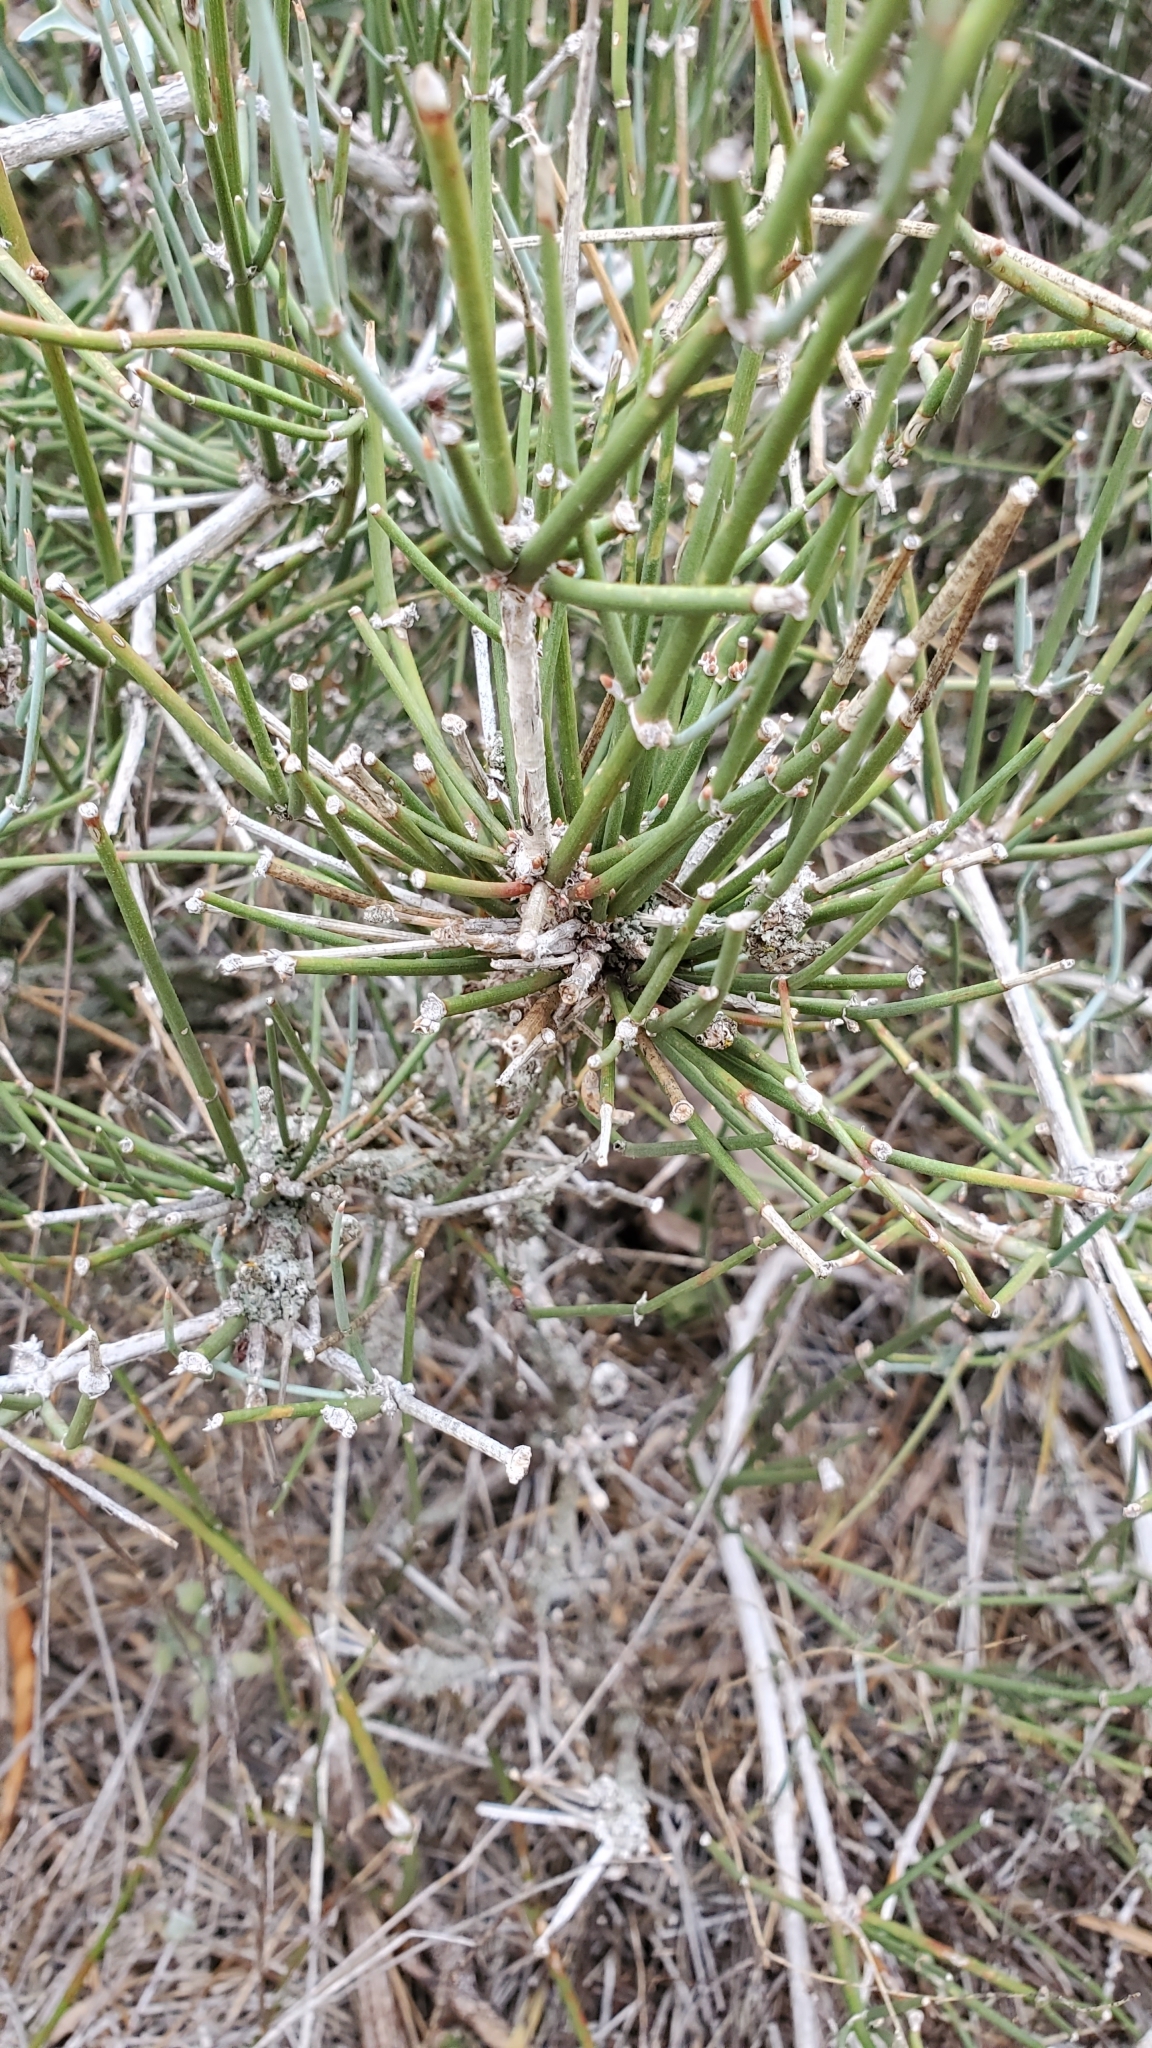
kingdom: Plantae
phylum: Tracheophyta
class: Gnetopsida
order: Ephedrales
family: Ephedraceae
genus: Ephedra
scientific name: Ephedra antisyphilitica
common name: Clipweed
